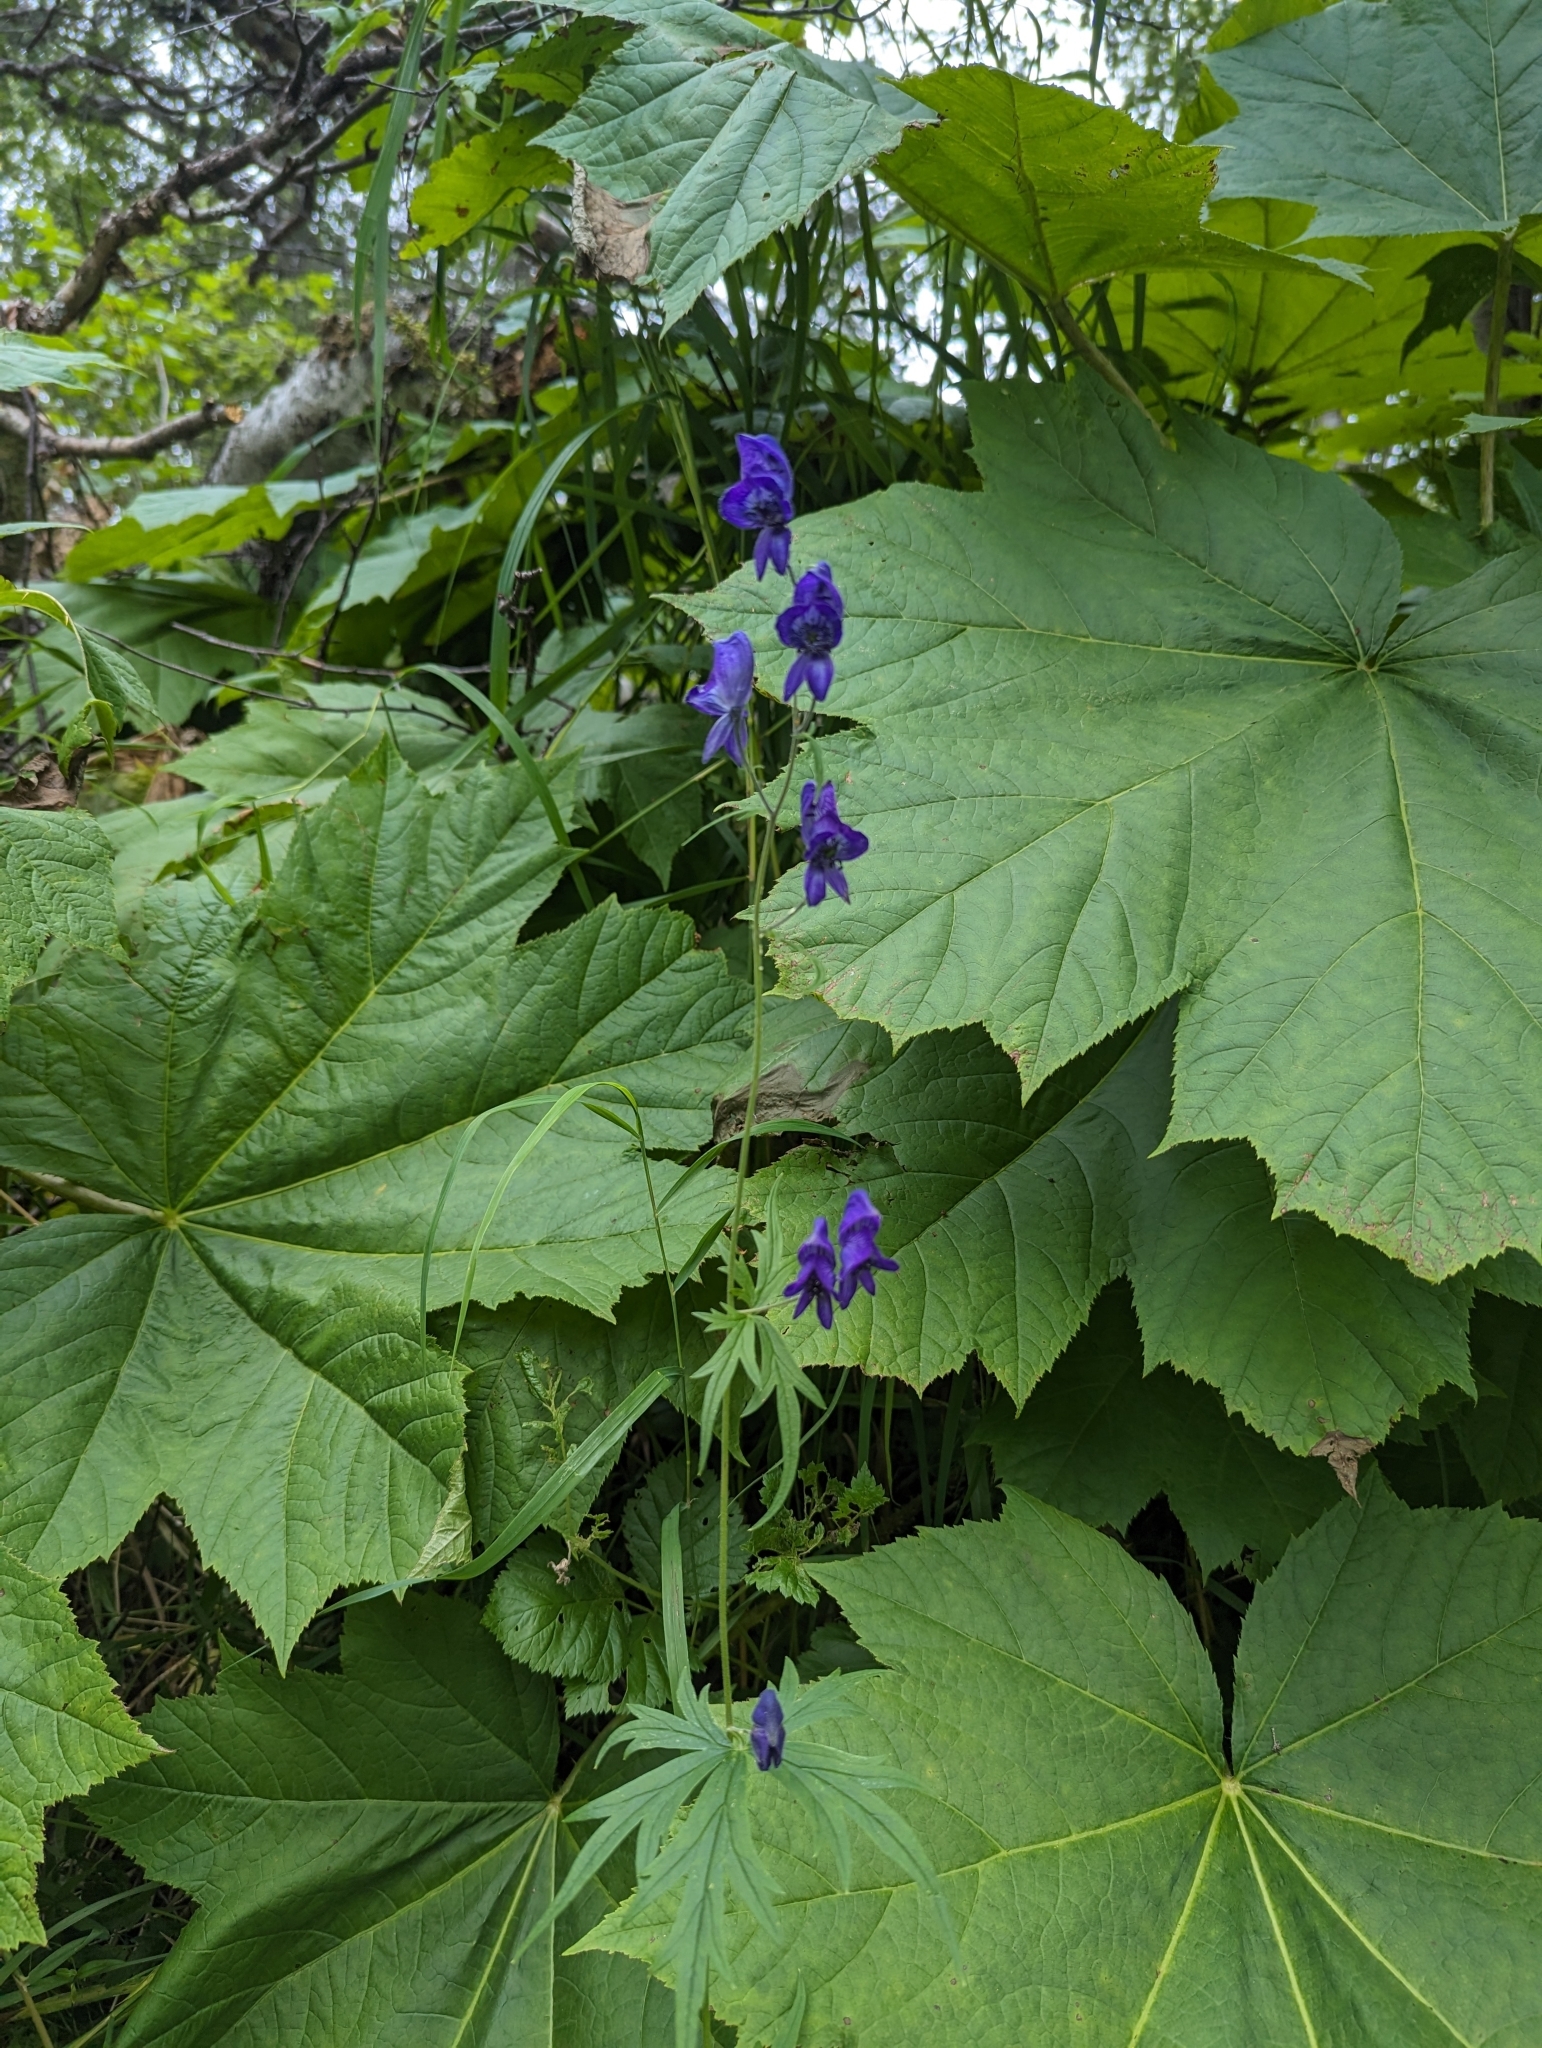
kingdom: Plantae
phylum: Tracheophyta
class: Magnoliopsida
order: Ranunculales
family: Ranunculaceae
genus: Aconitum
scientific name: Aconitum delphiniifolium
